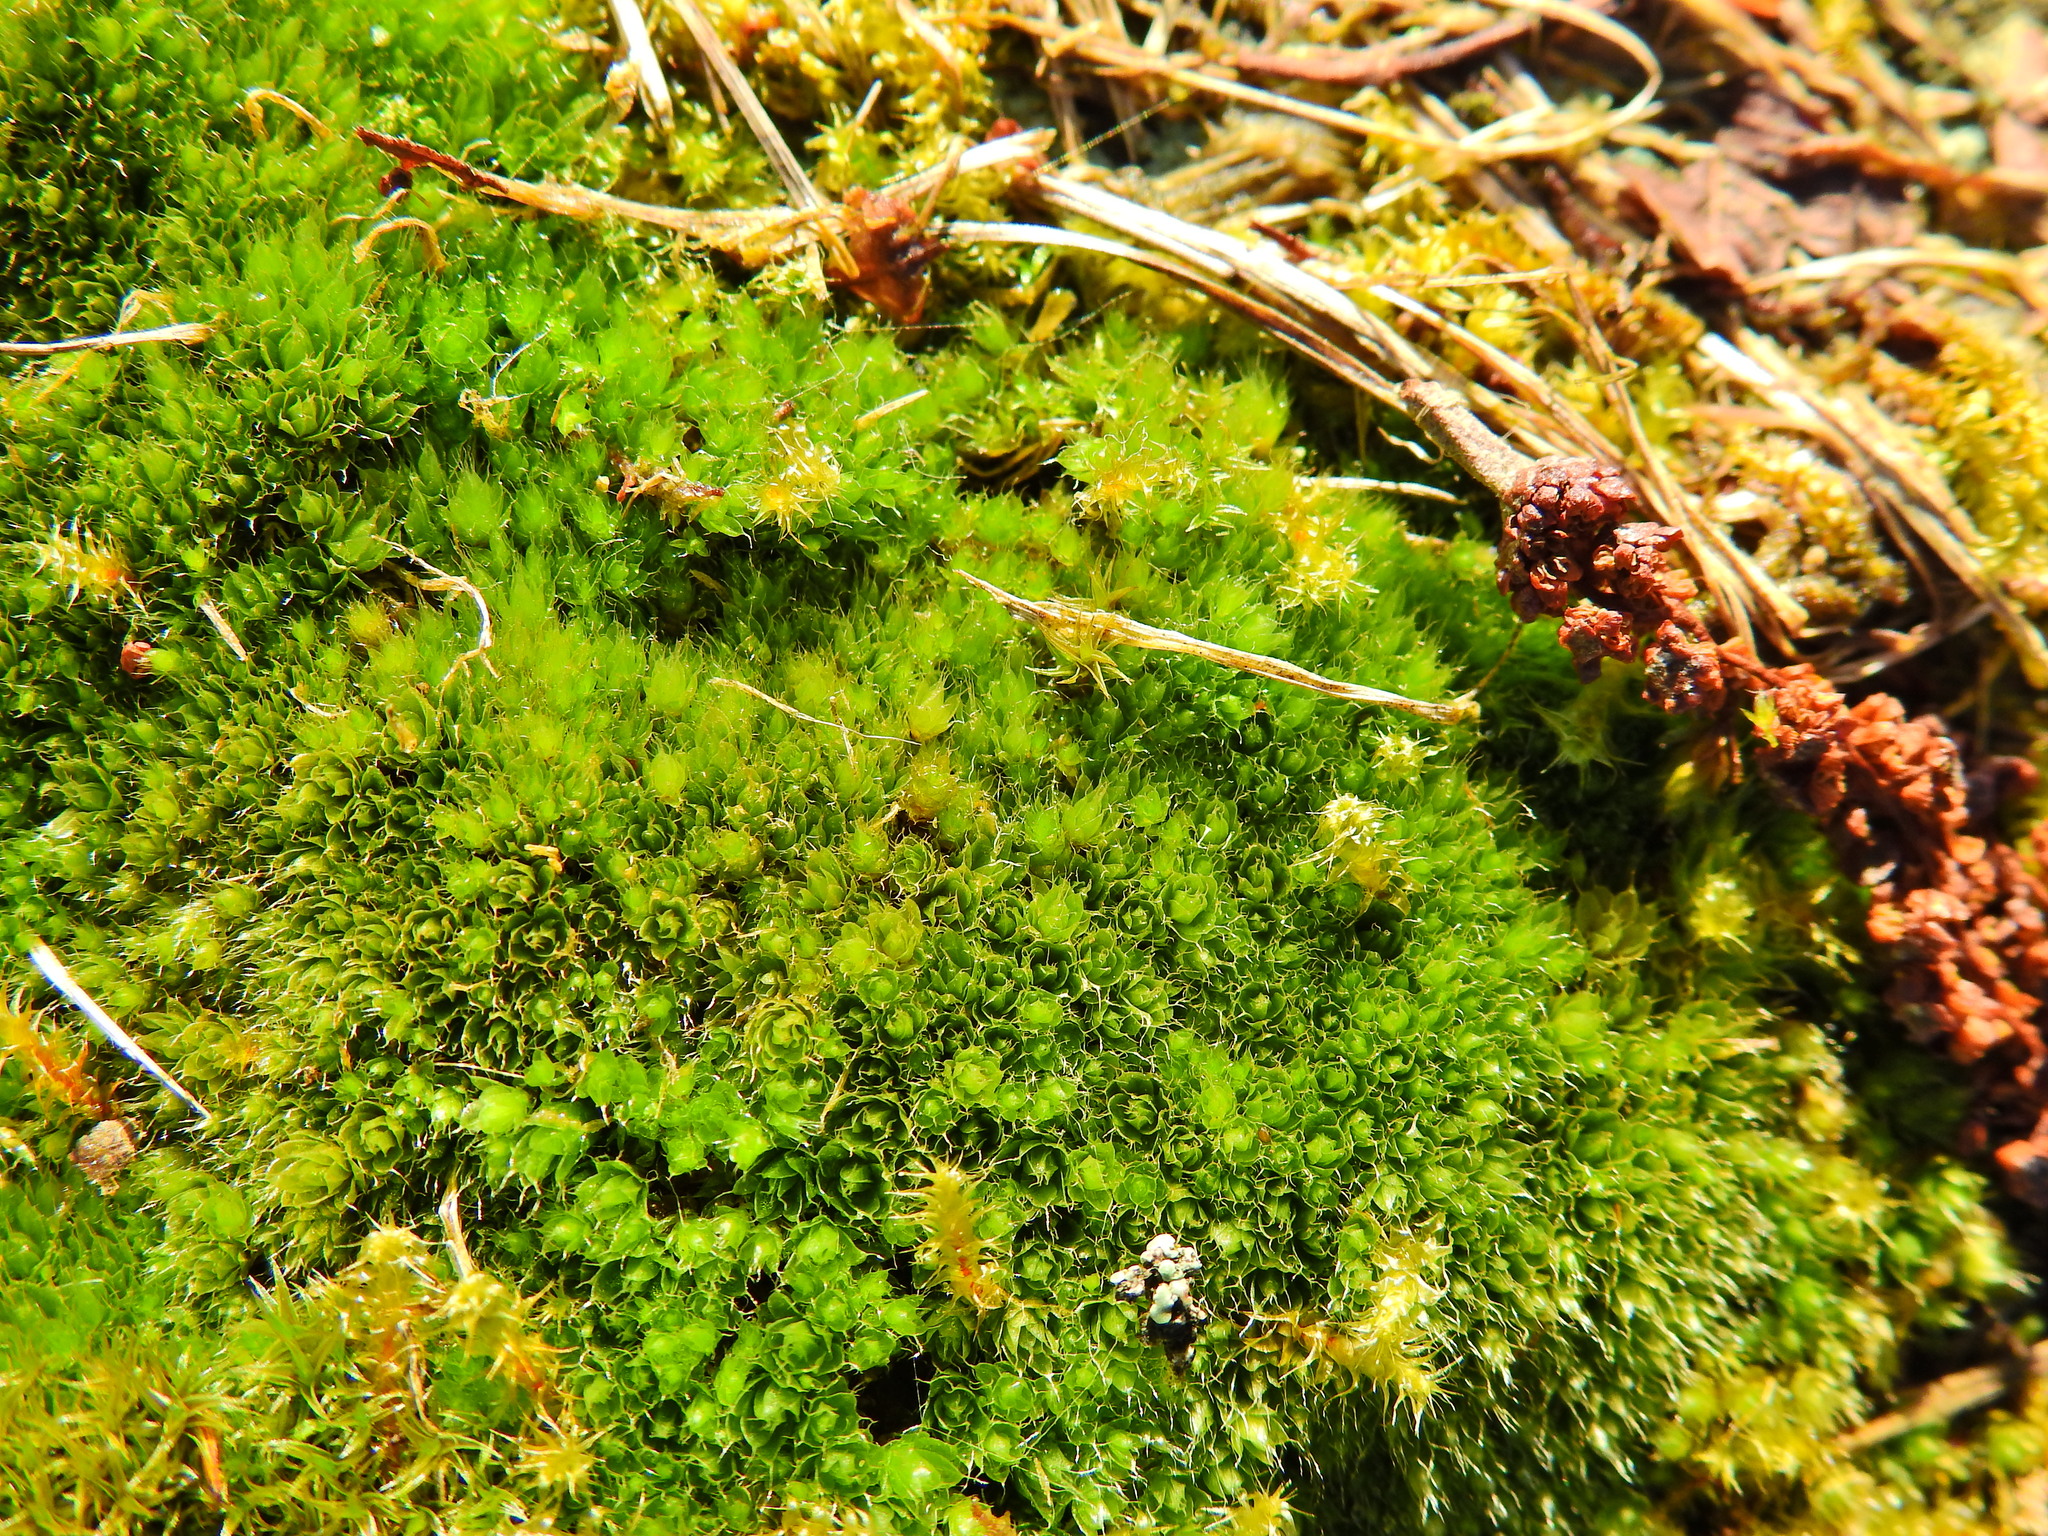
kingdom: Plantae
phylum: Bryophyta
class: Bryopsida
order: Bryales
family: Bryaceae
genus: Rosulabryum
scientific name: Rosulabryum capillare
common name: Capillary thread-moss
